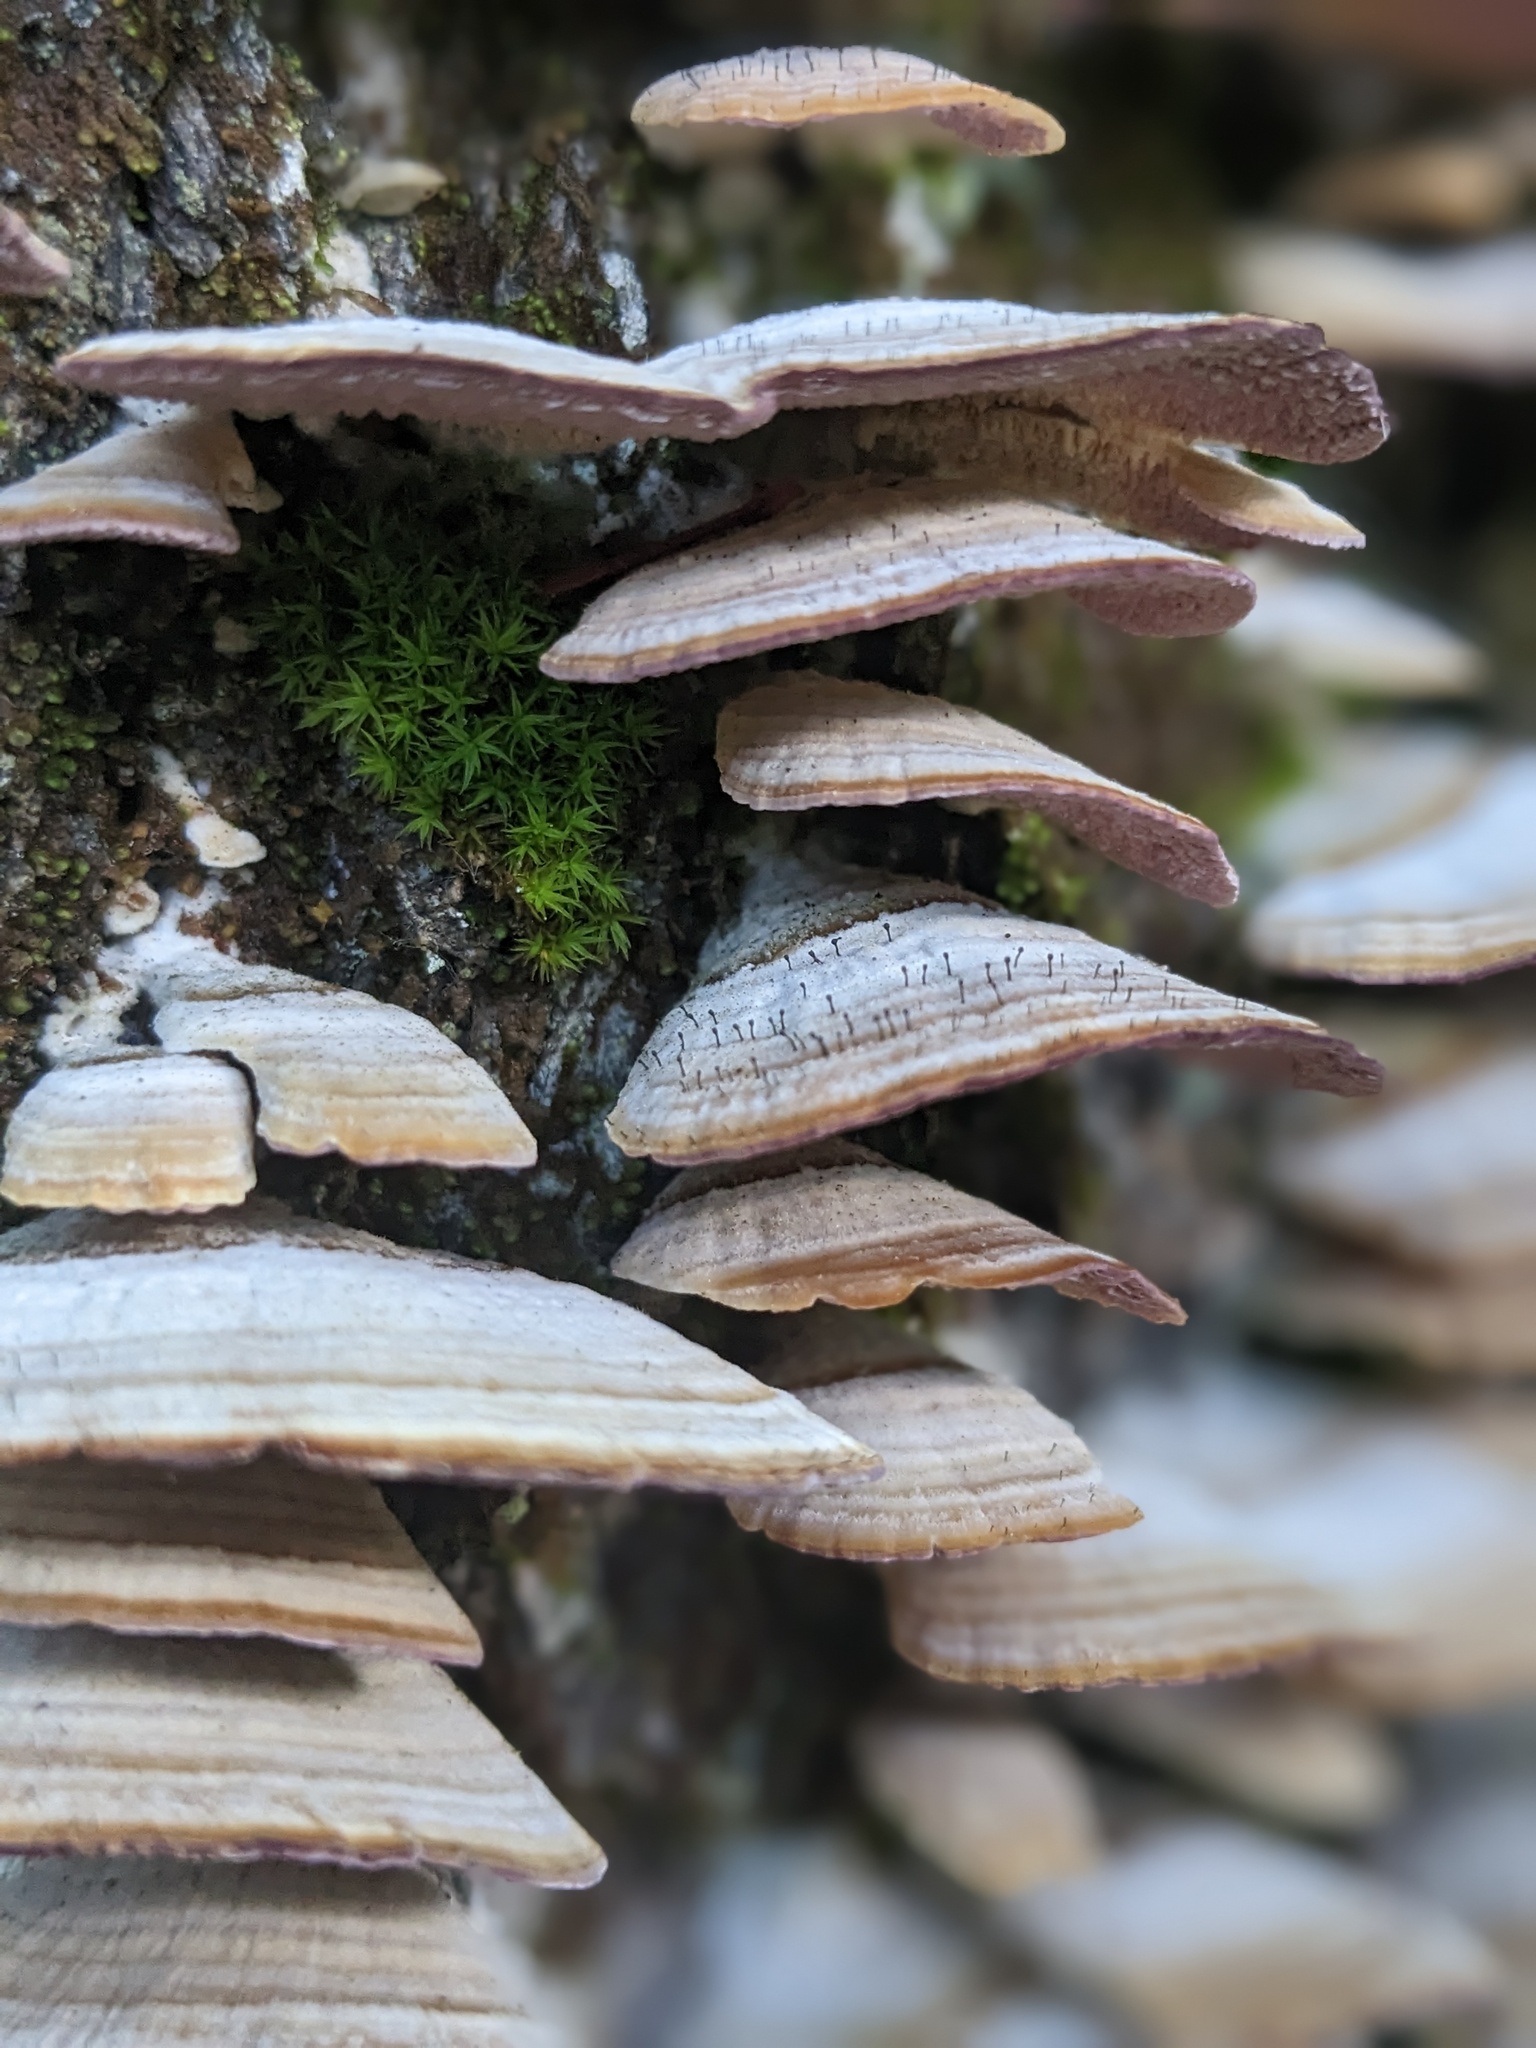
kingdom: Fungi
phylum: Ascomycota
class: Eurotiomycetes
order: Mycocaliciales
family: Mycocaliciaceae
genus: Phaeocalicium
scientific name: Phaeocalicium polyporaeum
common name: Fairy pins
